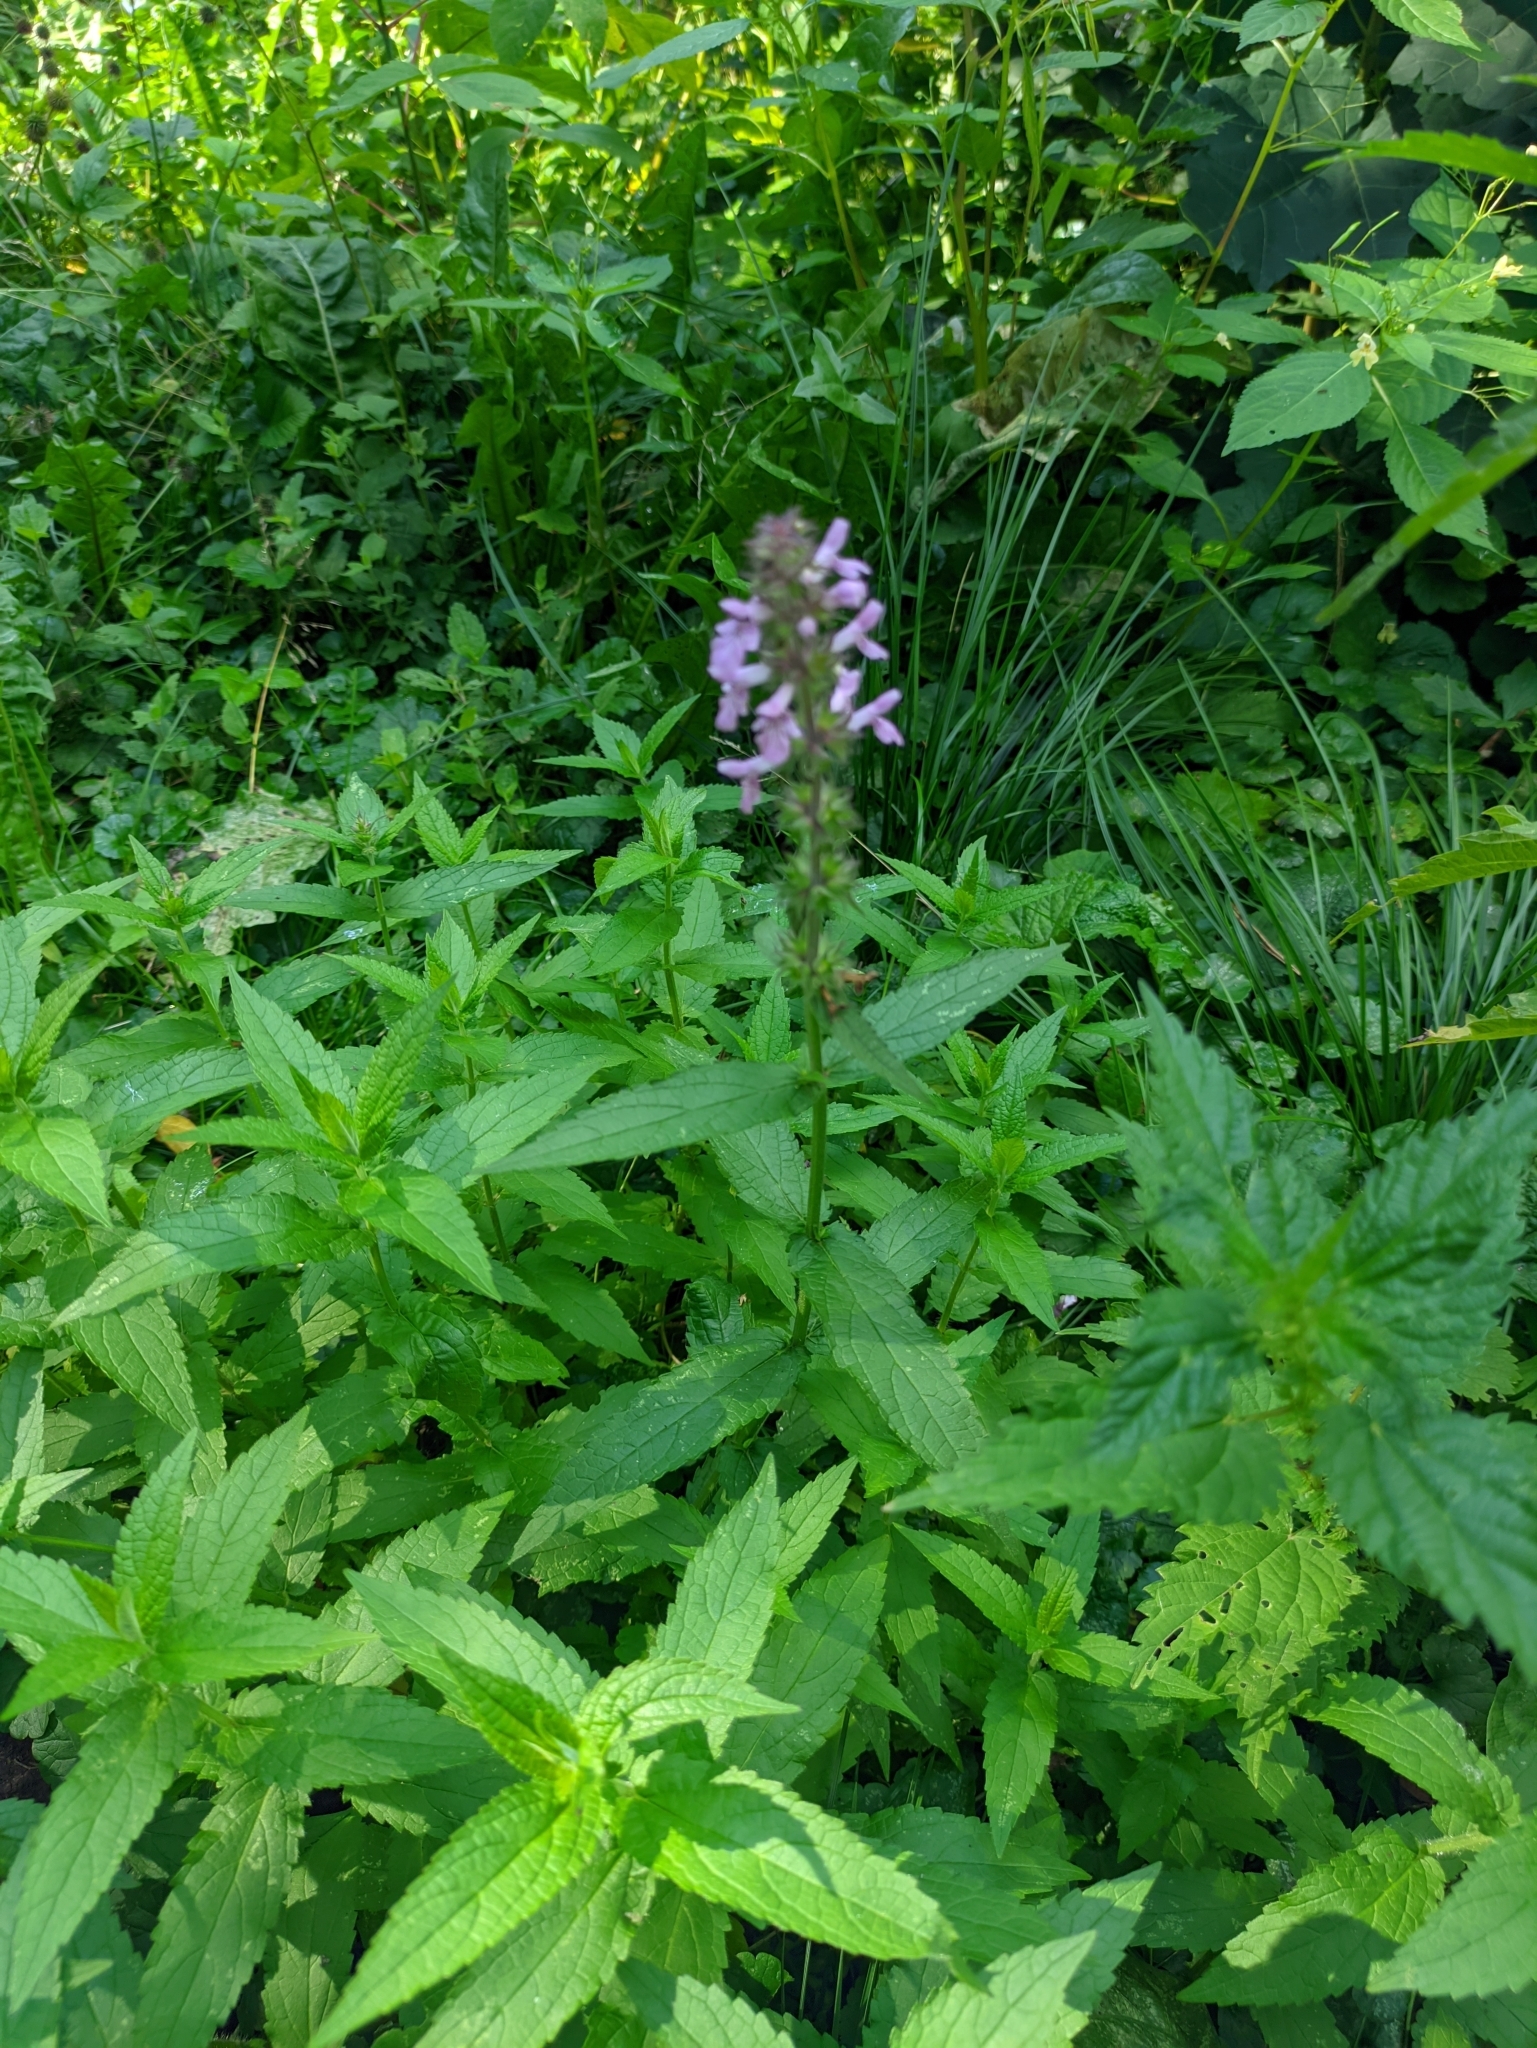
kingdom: Plantae
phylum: Tracheophyta
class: Magnoliopsida
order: Lamiales
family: Lamiaceae
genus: Stachys
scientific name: Stachys palustris
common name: Marsh woundwort
